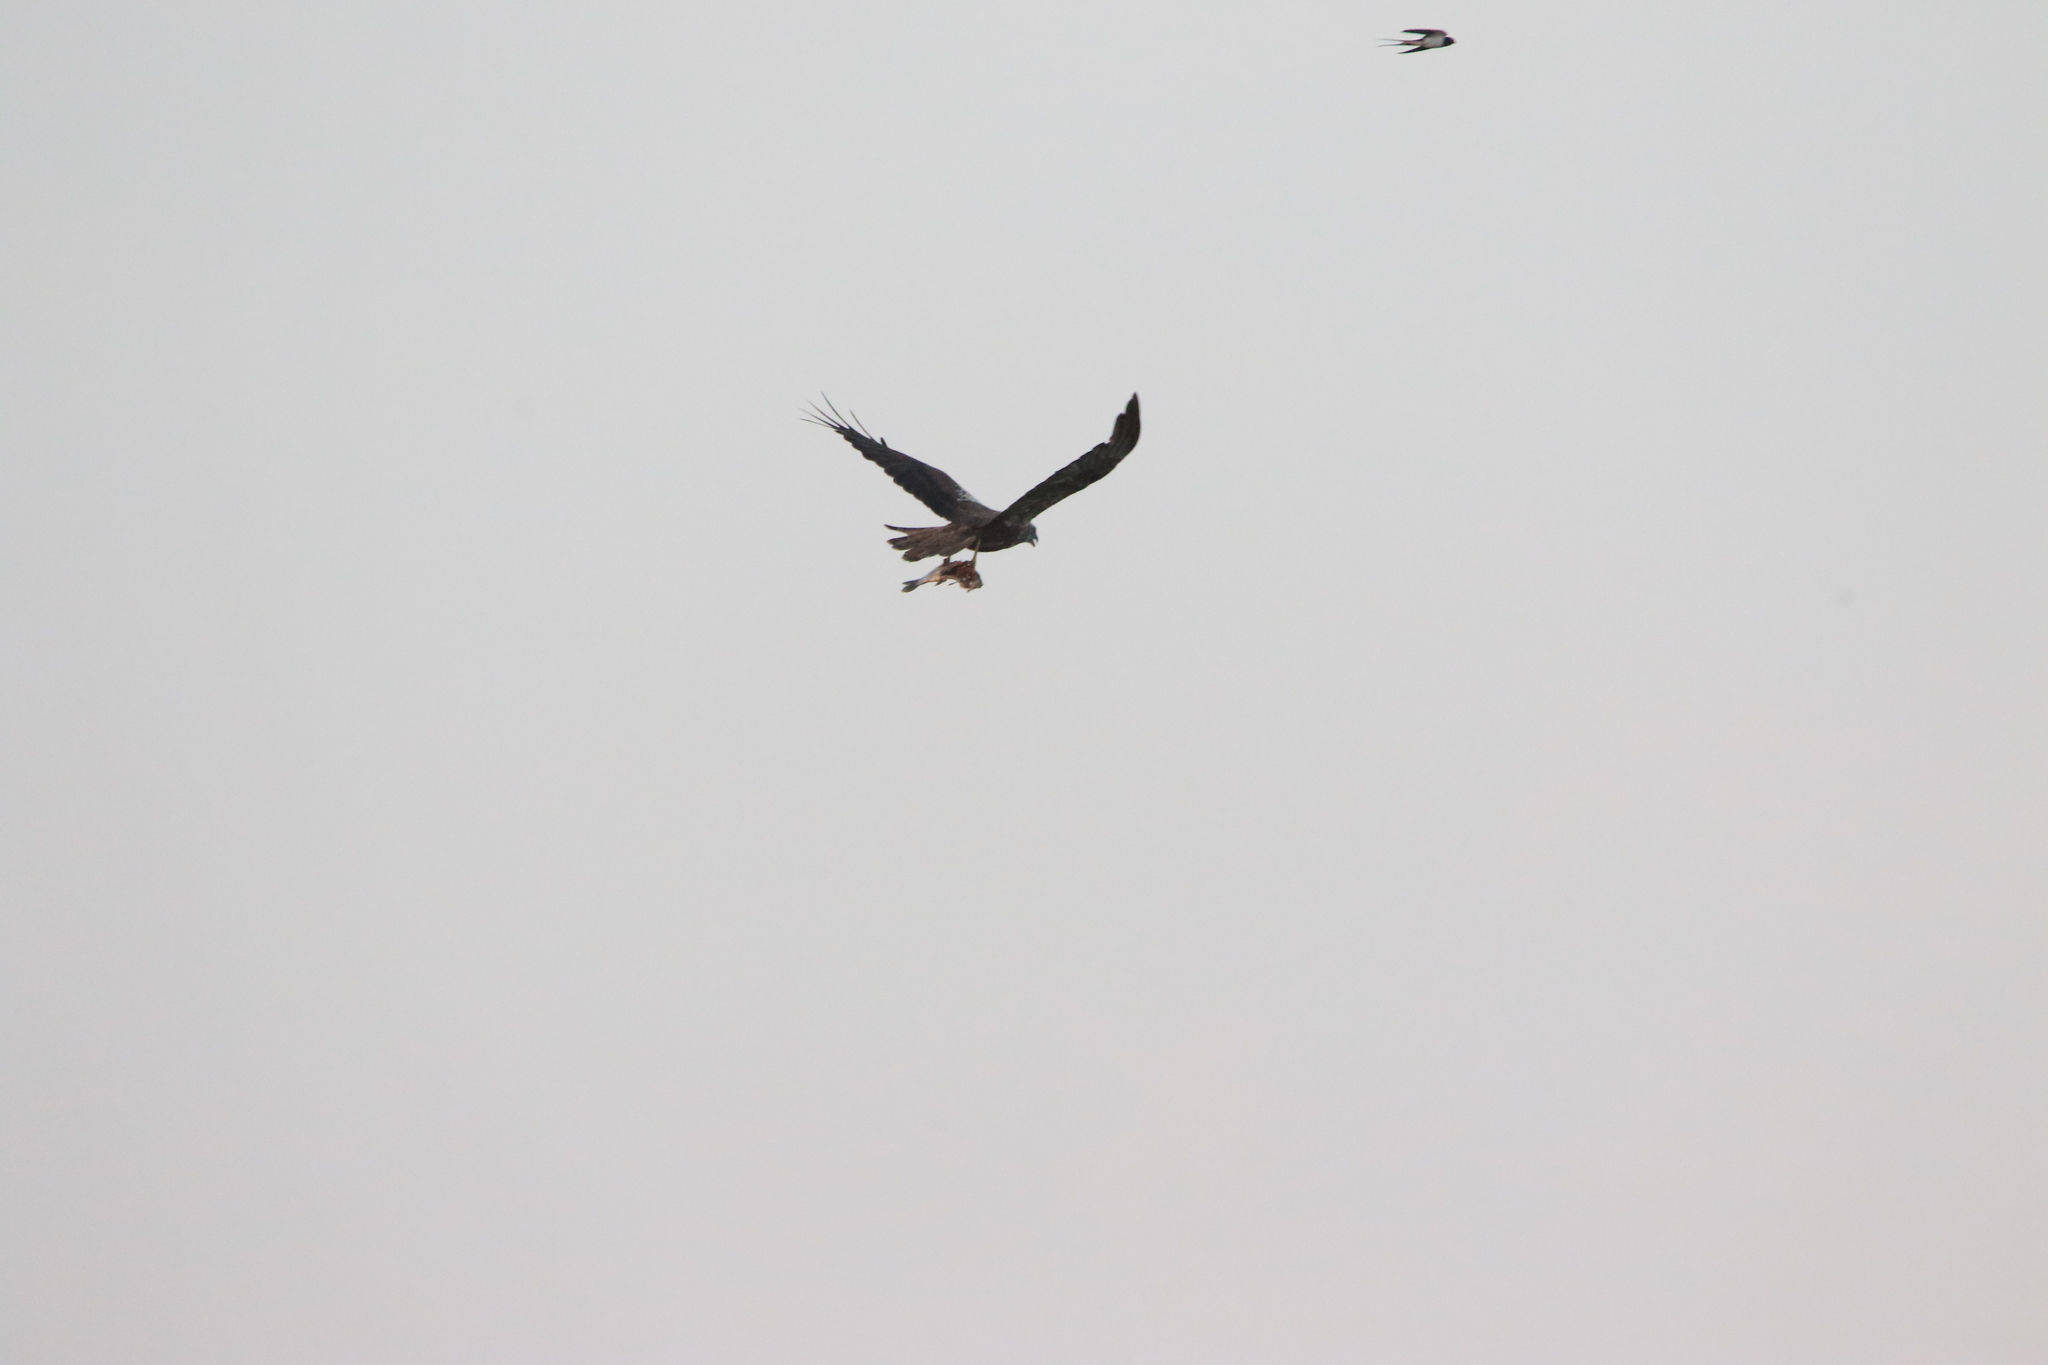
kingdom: Animalia
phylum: Chordata
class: Aves
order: Accipitriformes
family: Accipitridae
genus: Circus
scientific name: Circus aeruginosus
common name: Western marsh harrier
